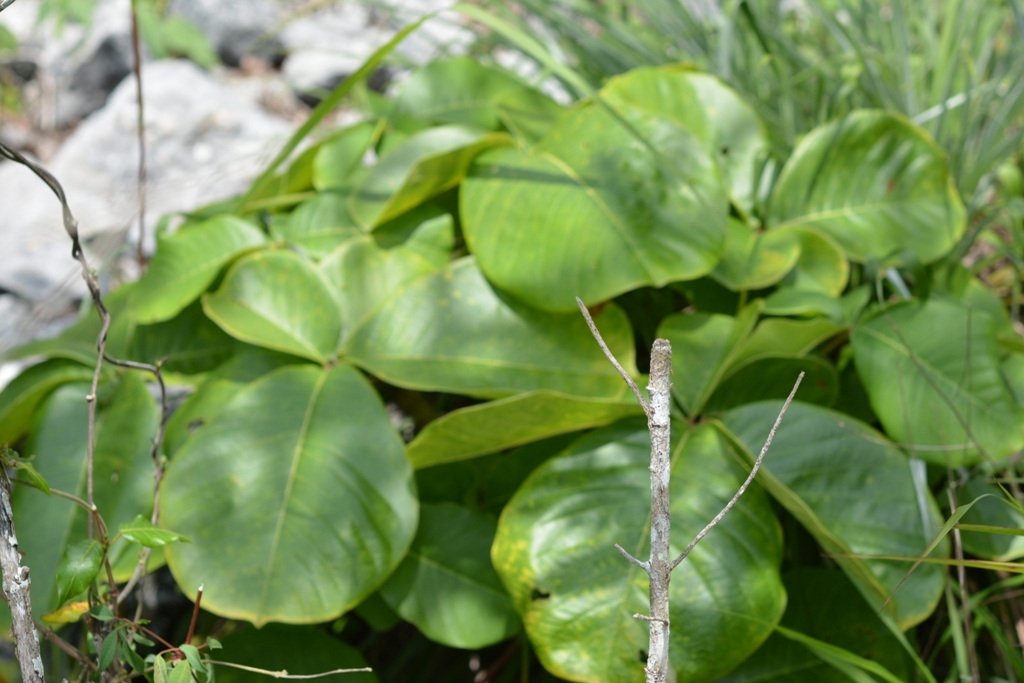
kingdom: Plantae
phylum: Tracheophyta
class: Magnoliopsida
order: Malvales
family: Malvaceae
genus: Pseudobombax
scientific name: Pseudobombax palmeri
